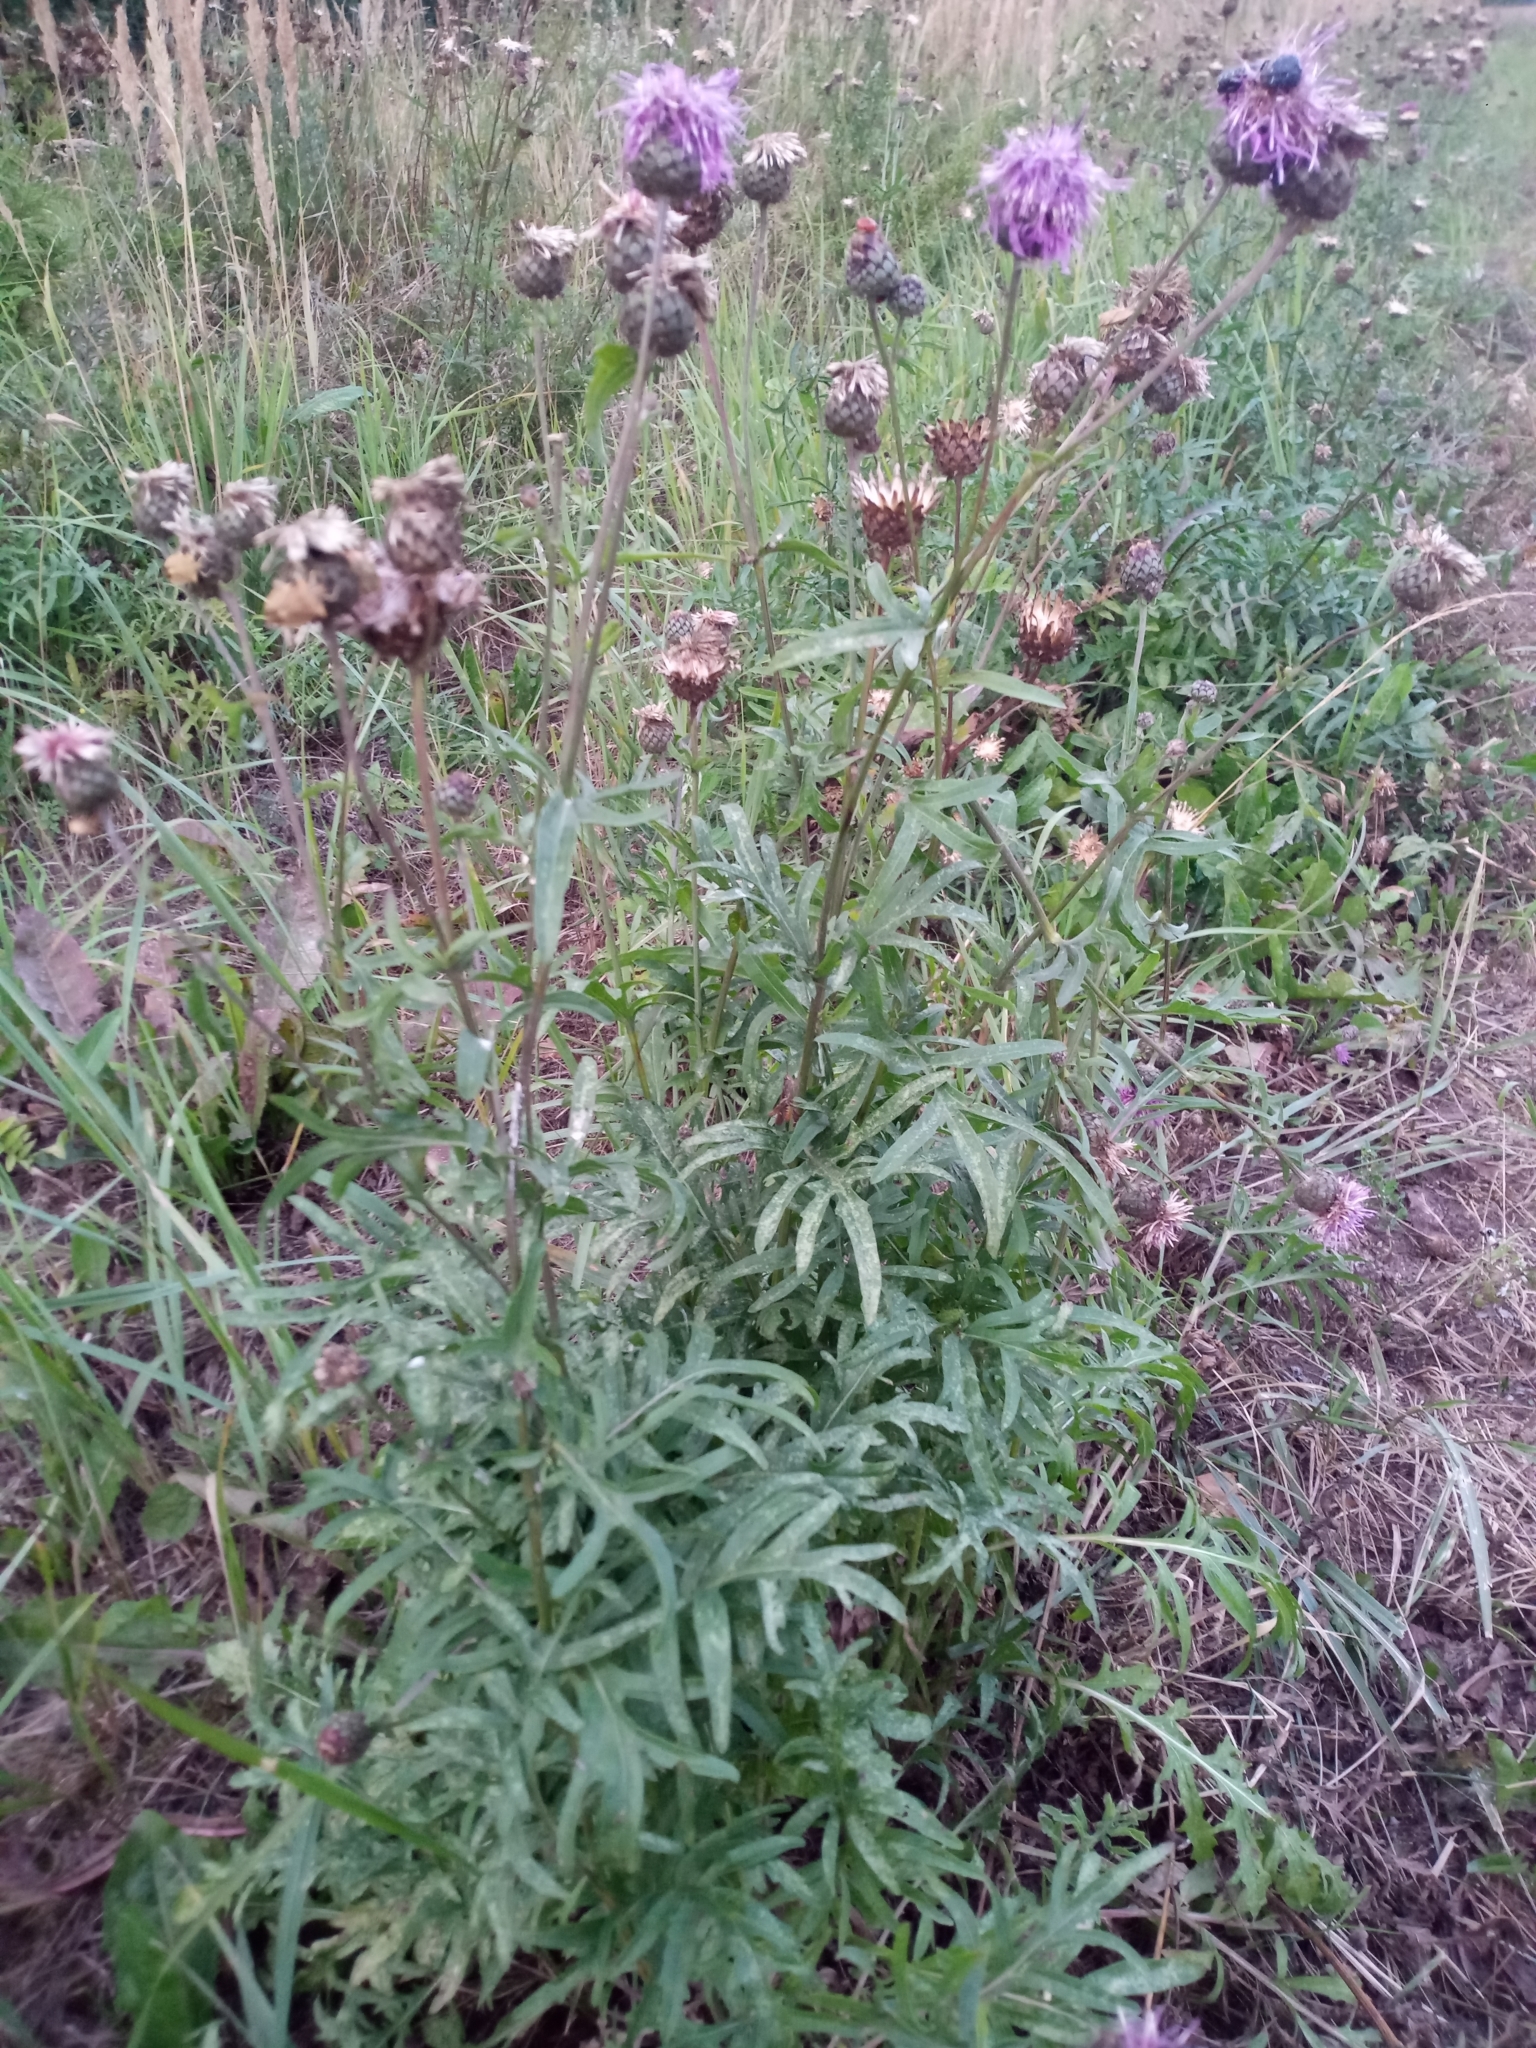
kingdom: Plantae
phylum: Tracheophyta
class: Magnoliopsida
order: Asterales
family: Asteraceae
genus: Centaurea
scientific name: Centaurea scabiosa
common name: Greater knapweed
